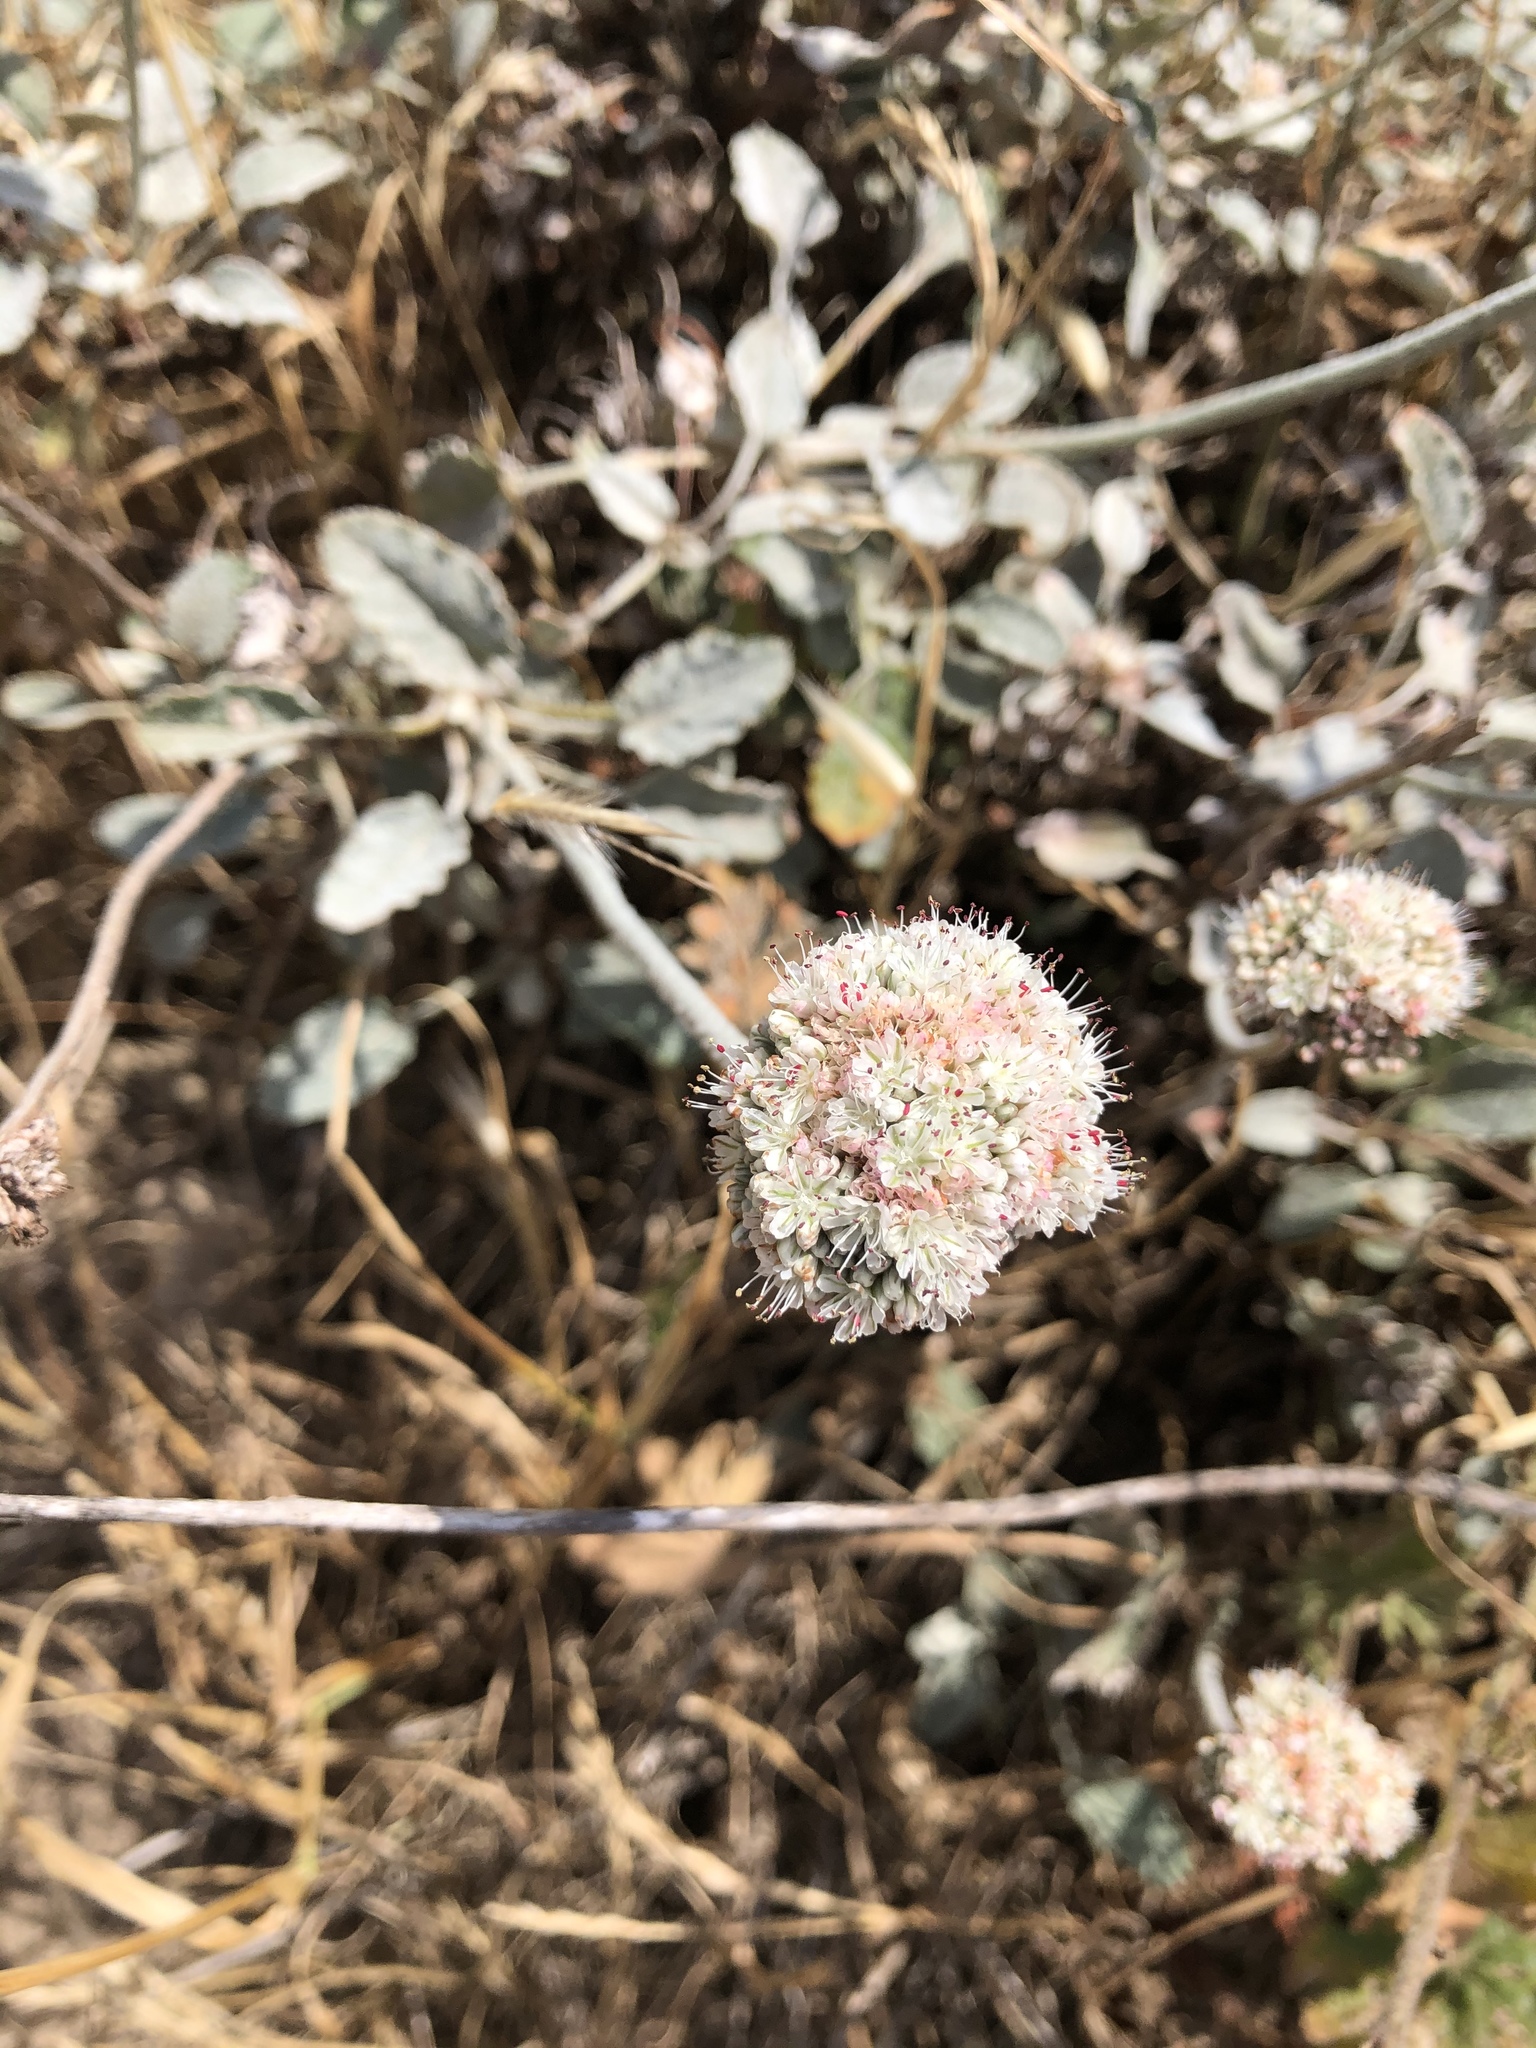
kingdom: Plantae
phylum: Tracheophyta
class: Magnoliopsida
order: Caryophyllales
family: Polygonaceae
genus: Eriogonum
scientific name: Eriogonum latifolium
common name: Seaside wild buckwheat
